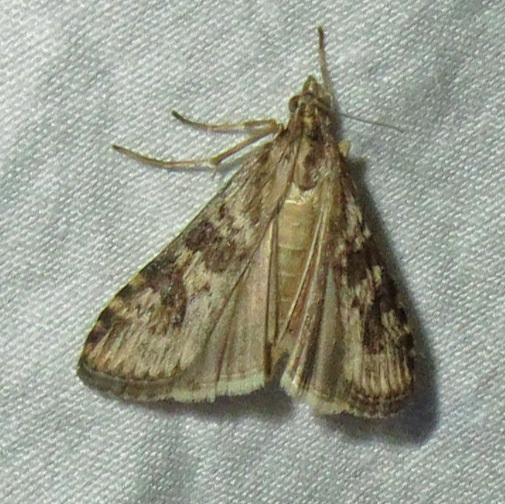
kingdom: Animalia
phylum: Arthropoda
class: Insecta
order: Lepidoptera
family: Crambidae
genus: Nomophila
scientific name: Nomophila nearctica
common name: American rush veneer
